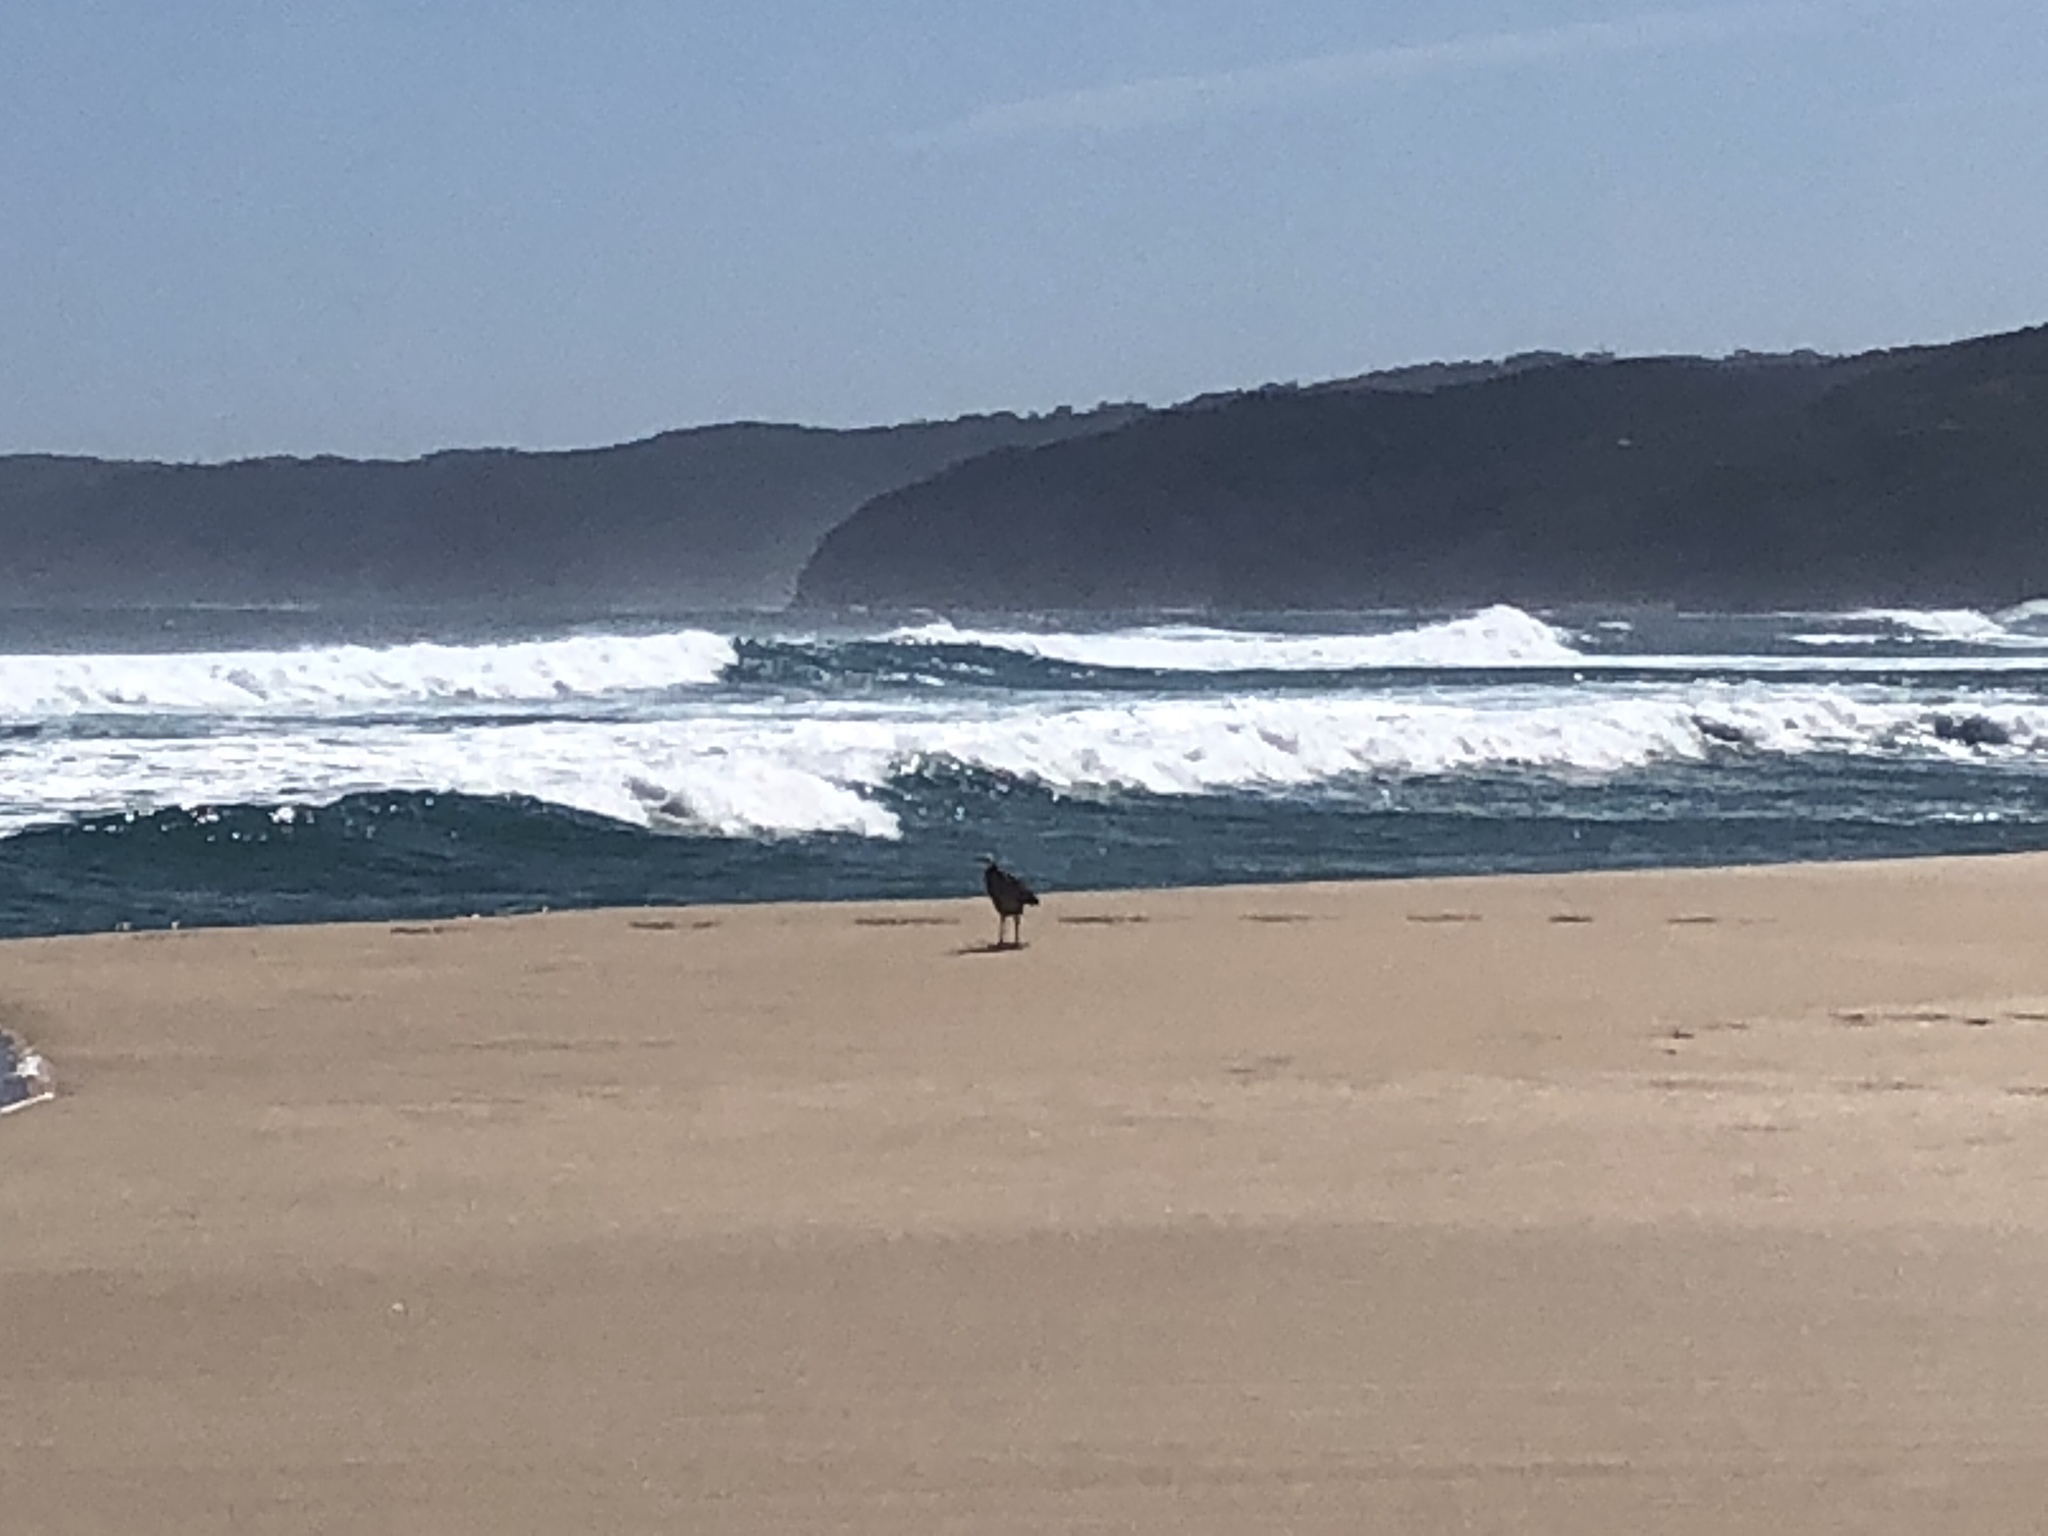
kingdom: Animalia
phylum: Chordata
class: Aves
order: Pelecaniformes
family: Ardeidae
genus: Egretta
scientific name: Egretta novaehollandiae
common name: White-faced heron
